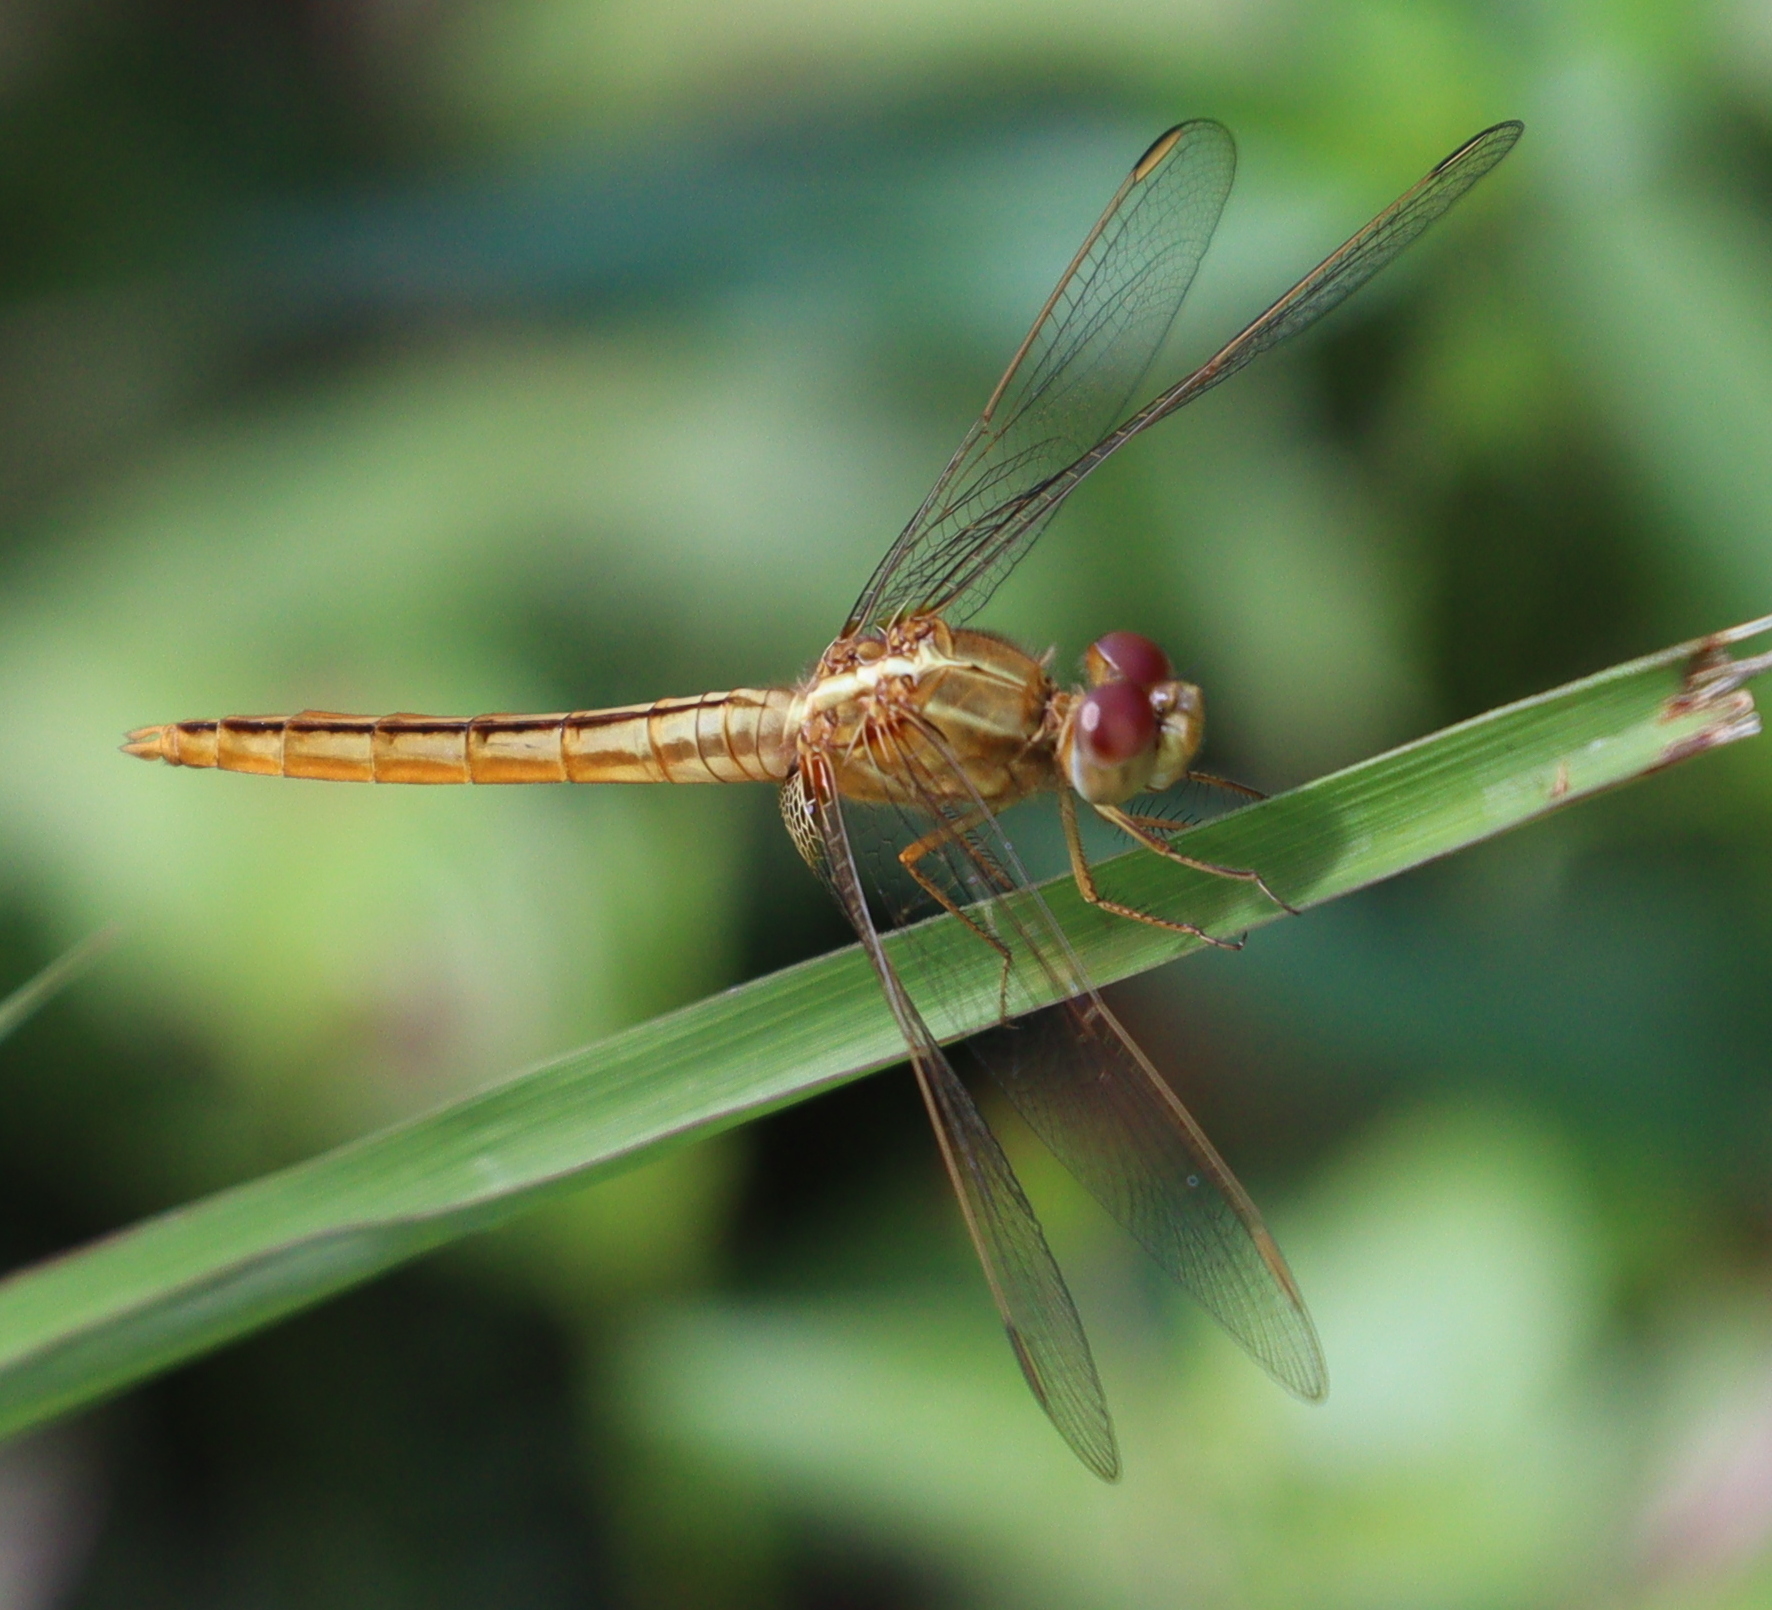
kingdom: Animalia
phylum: Arthropoda
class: Insecta
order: Odonata
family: Libellulidae
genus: Crocothemis
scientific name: Crocothemis servilia
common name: Scarlet skimmer
